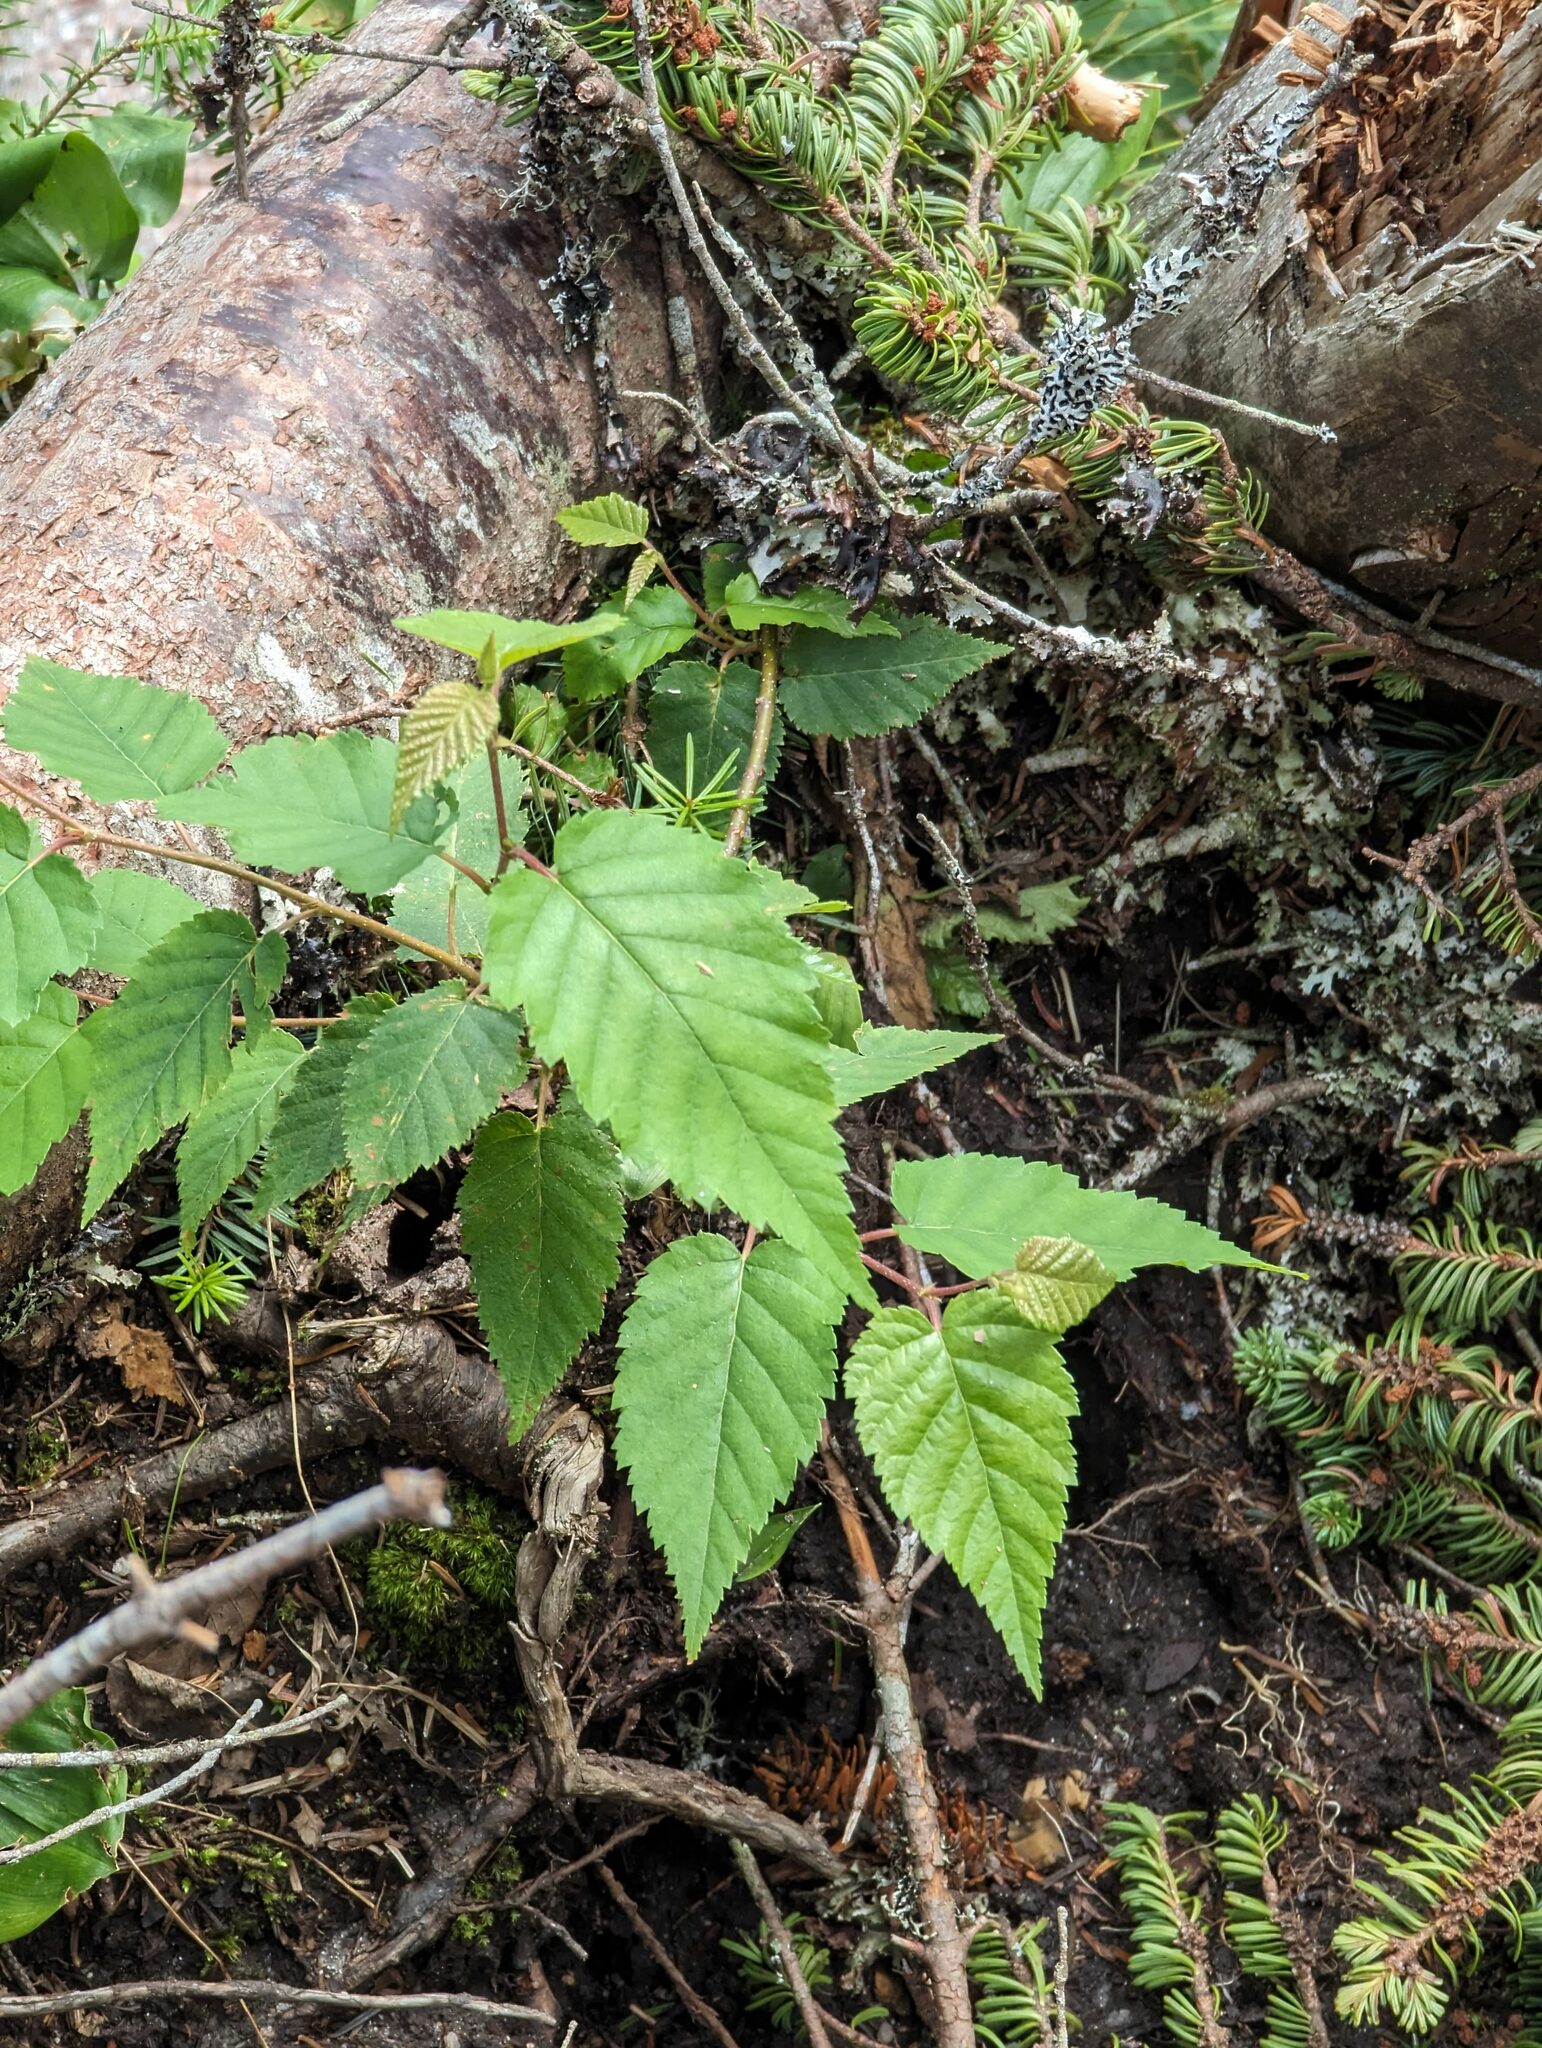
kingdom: Plantae
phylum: Tracheophyta
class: Magnoliopsida
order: Fagales
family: Betulaceae
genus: Betula
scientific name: Betula cordifolia
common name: Mountain white birch
